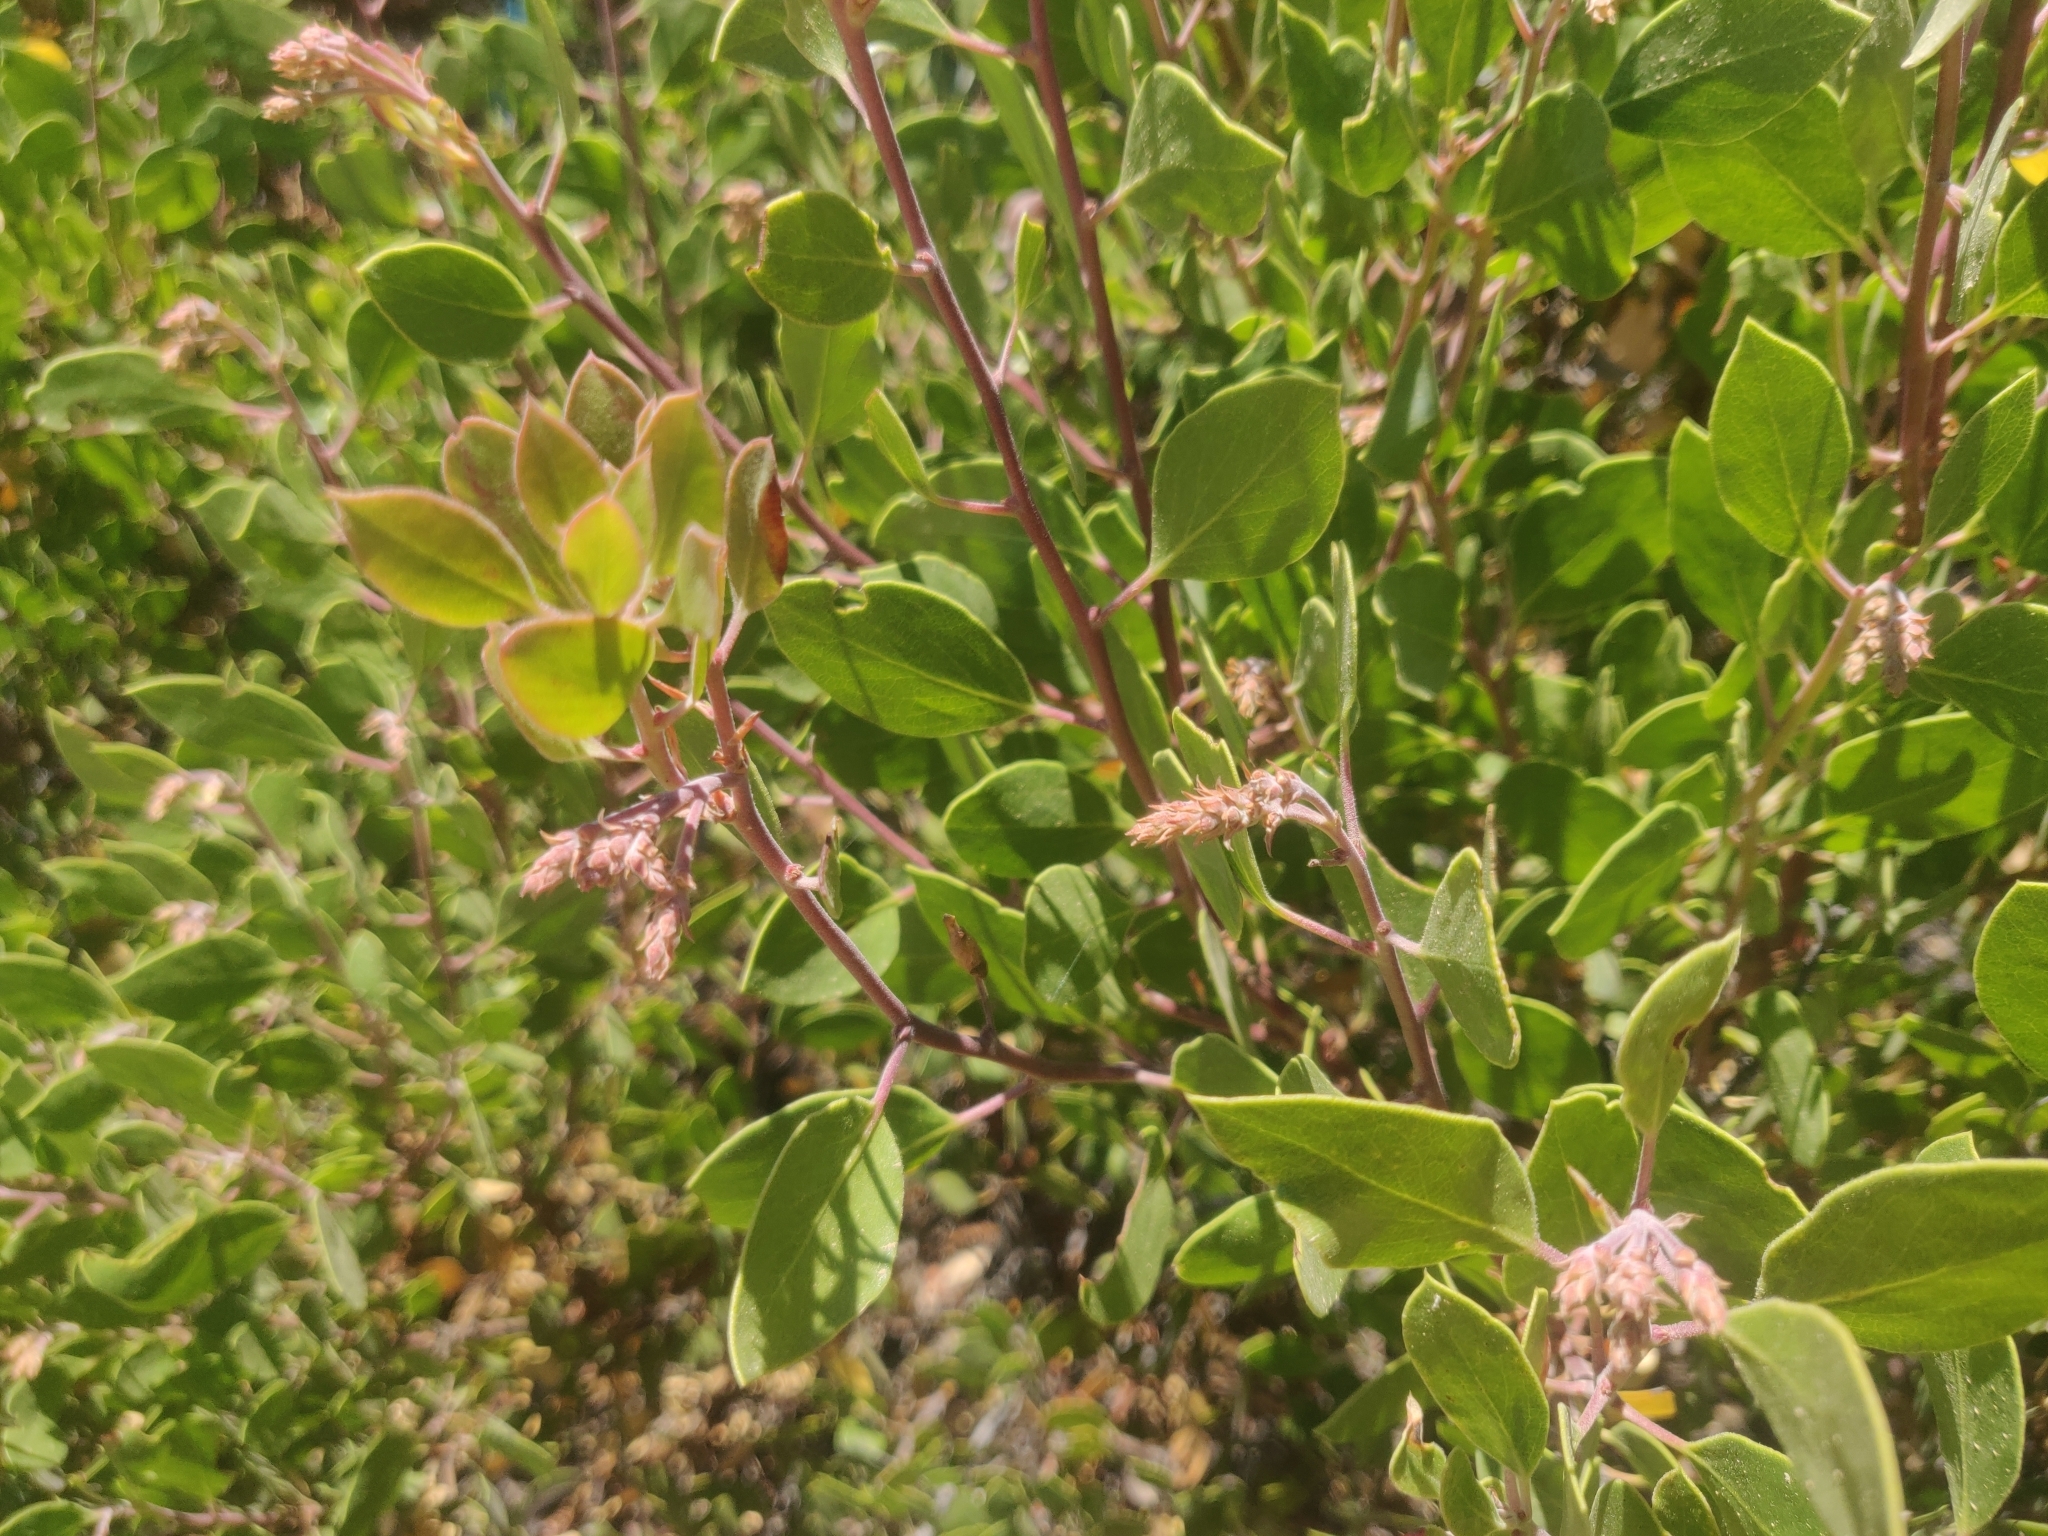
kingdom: Plantae
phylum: Tracheophyta
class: Magnoliopsida
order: Ericales
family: Ericaceae
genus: Arctostaphylos
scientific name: Arctostaphylos manzanita
